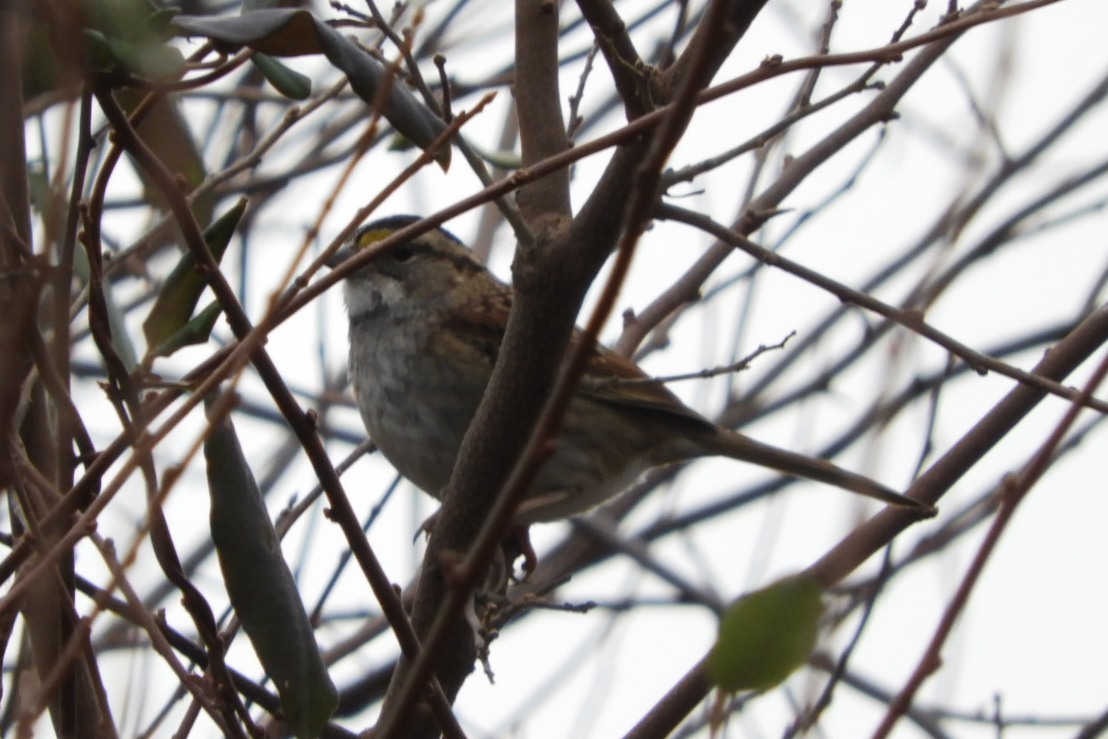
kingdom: Animalia
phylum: Chordata
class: Aves
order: Passeriformes
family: Passerellidae
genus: Zonotrichia
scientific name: Zonotrichia albicollis
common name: White-throated sparrow
